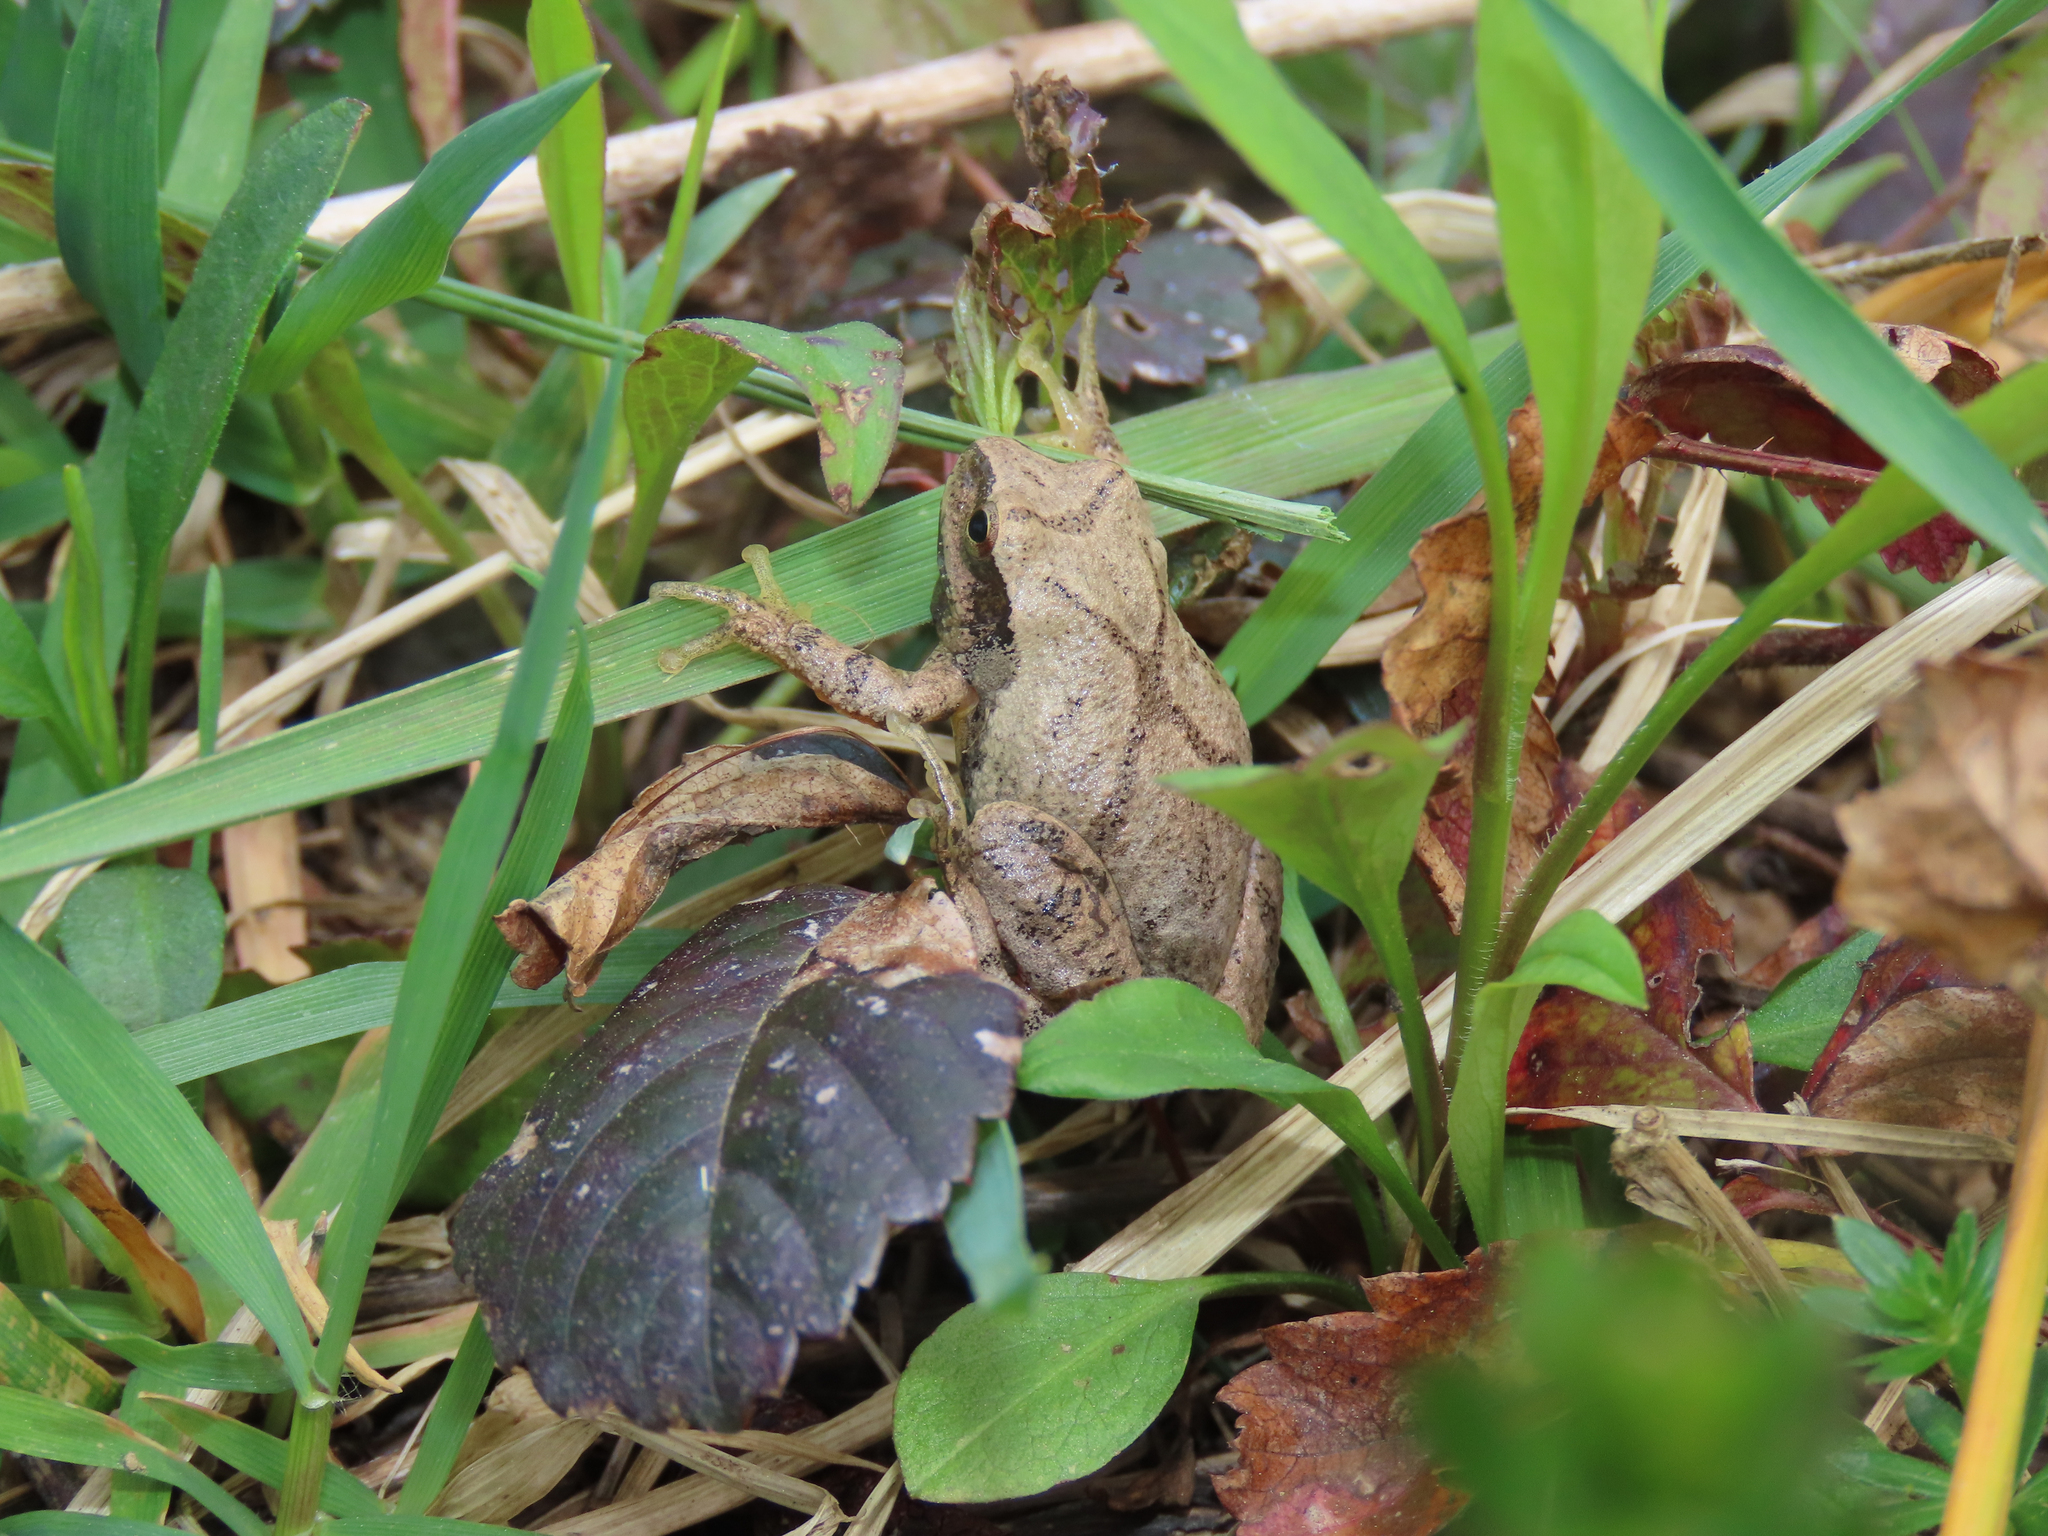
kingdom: Animalia
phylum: Chordata
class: Amphibia
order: Anura
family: Hylidae
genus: Pseudacris
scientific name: Pseudacris crucifer
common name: Spring peeper
